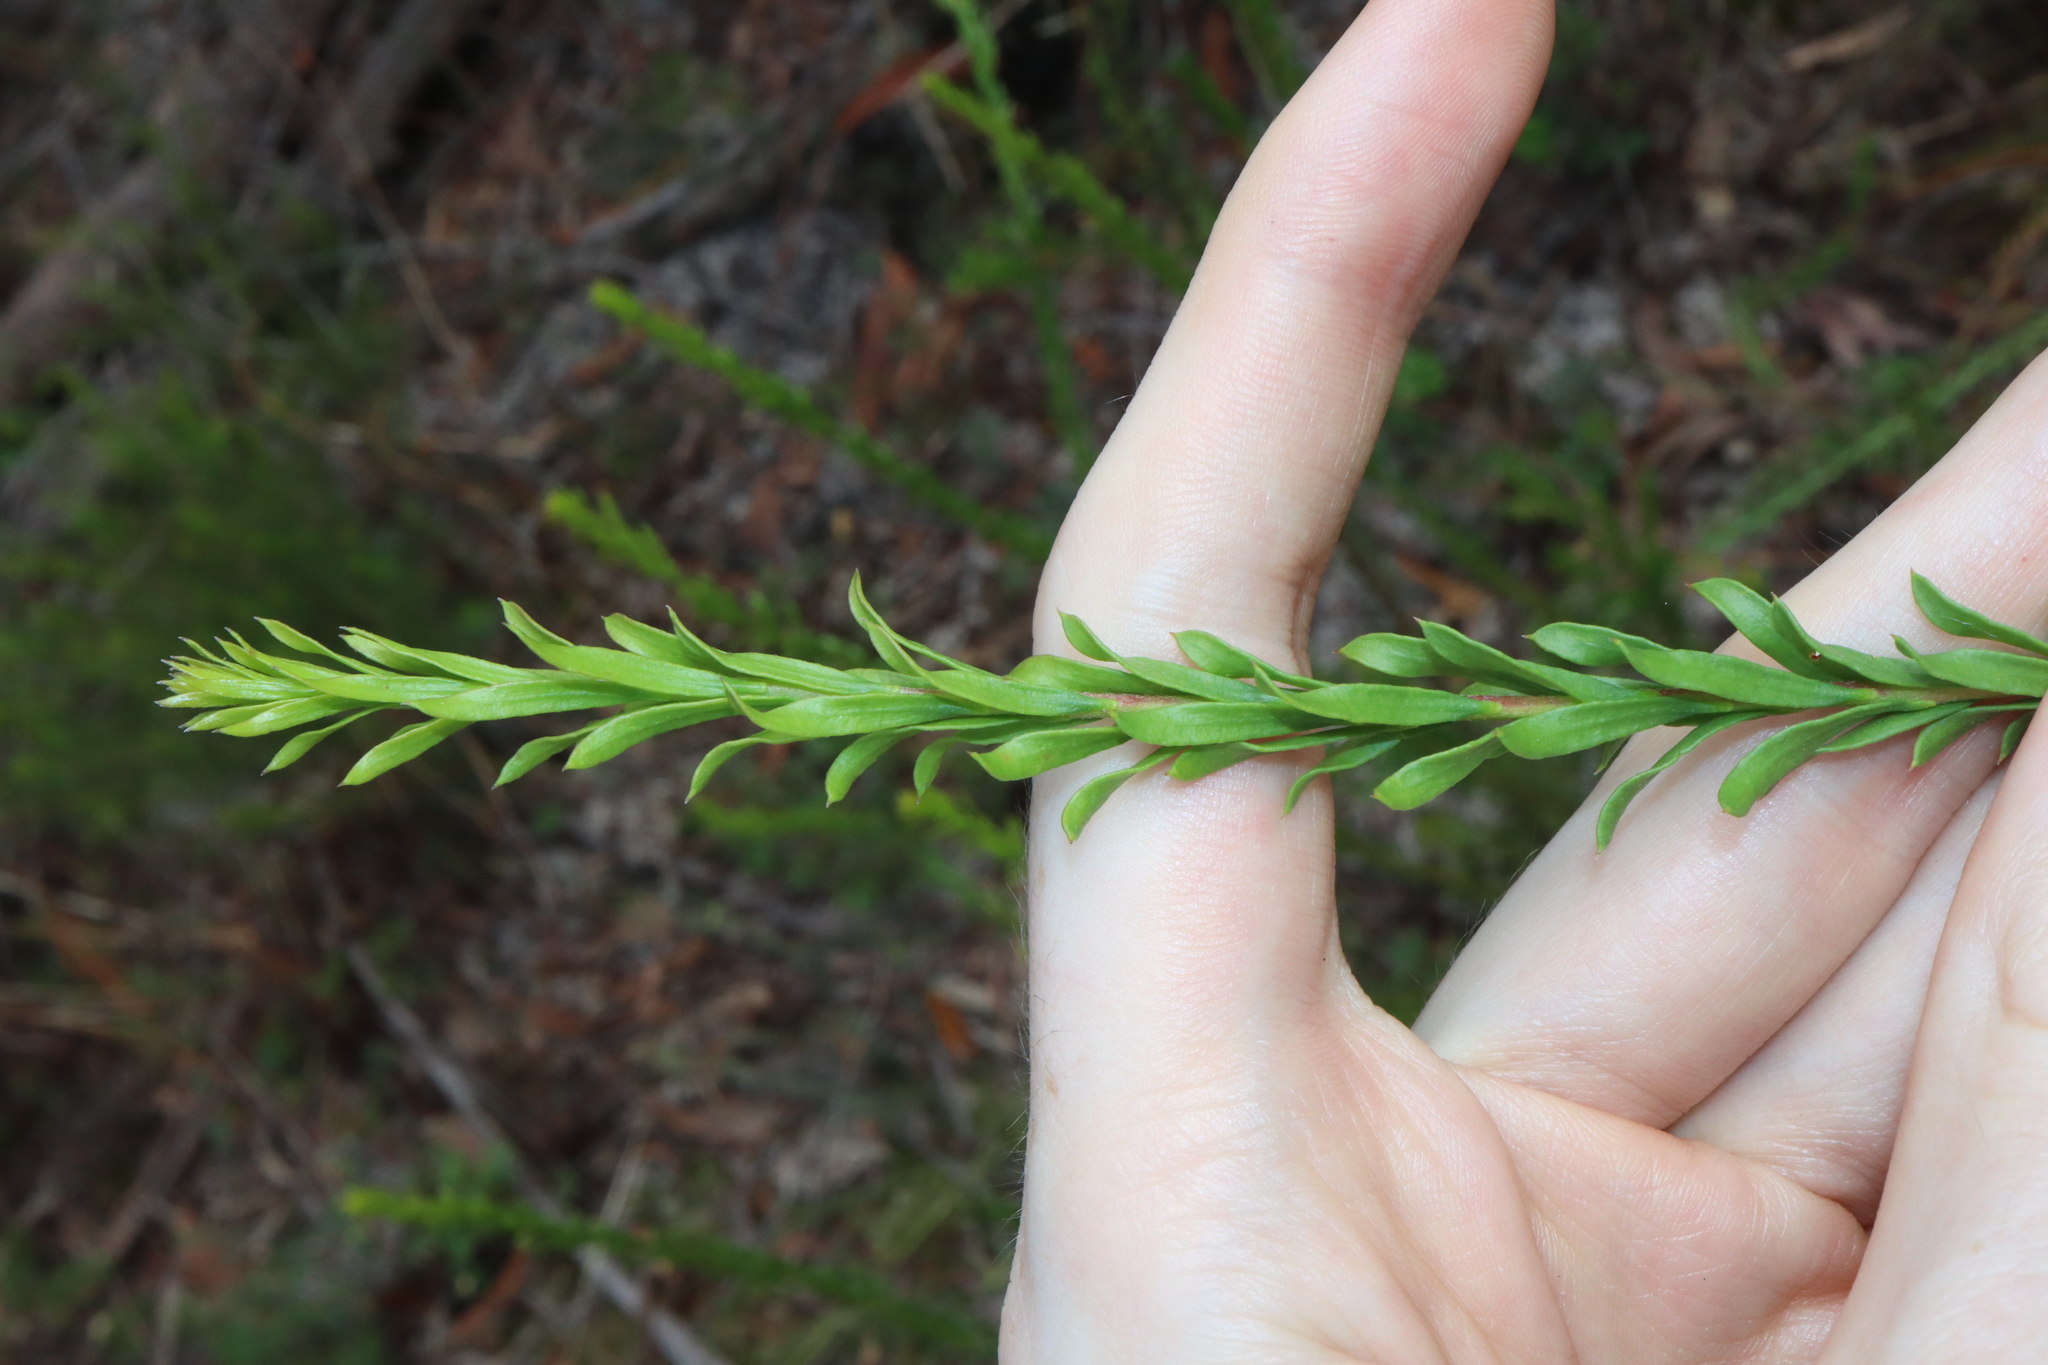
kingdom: Plantae
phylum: Tracheophyta
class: Magnoliopsida
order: Proteales
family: Proteaceae
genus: Conospermum
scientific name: Conospermum taxifolium
